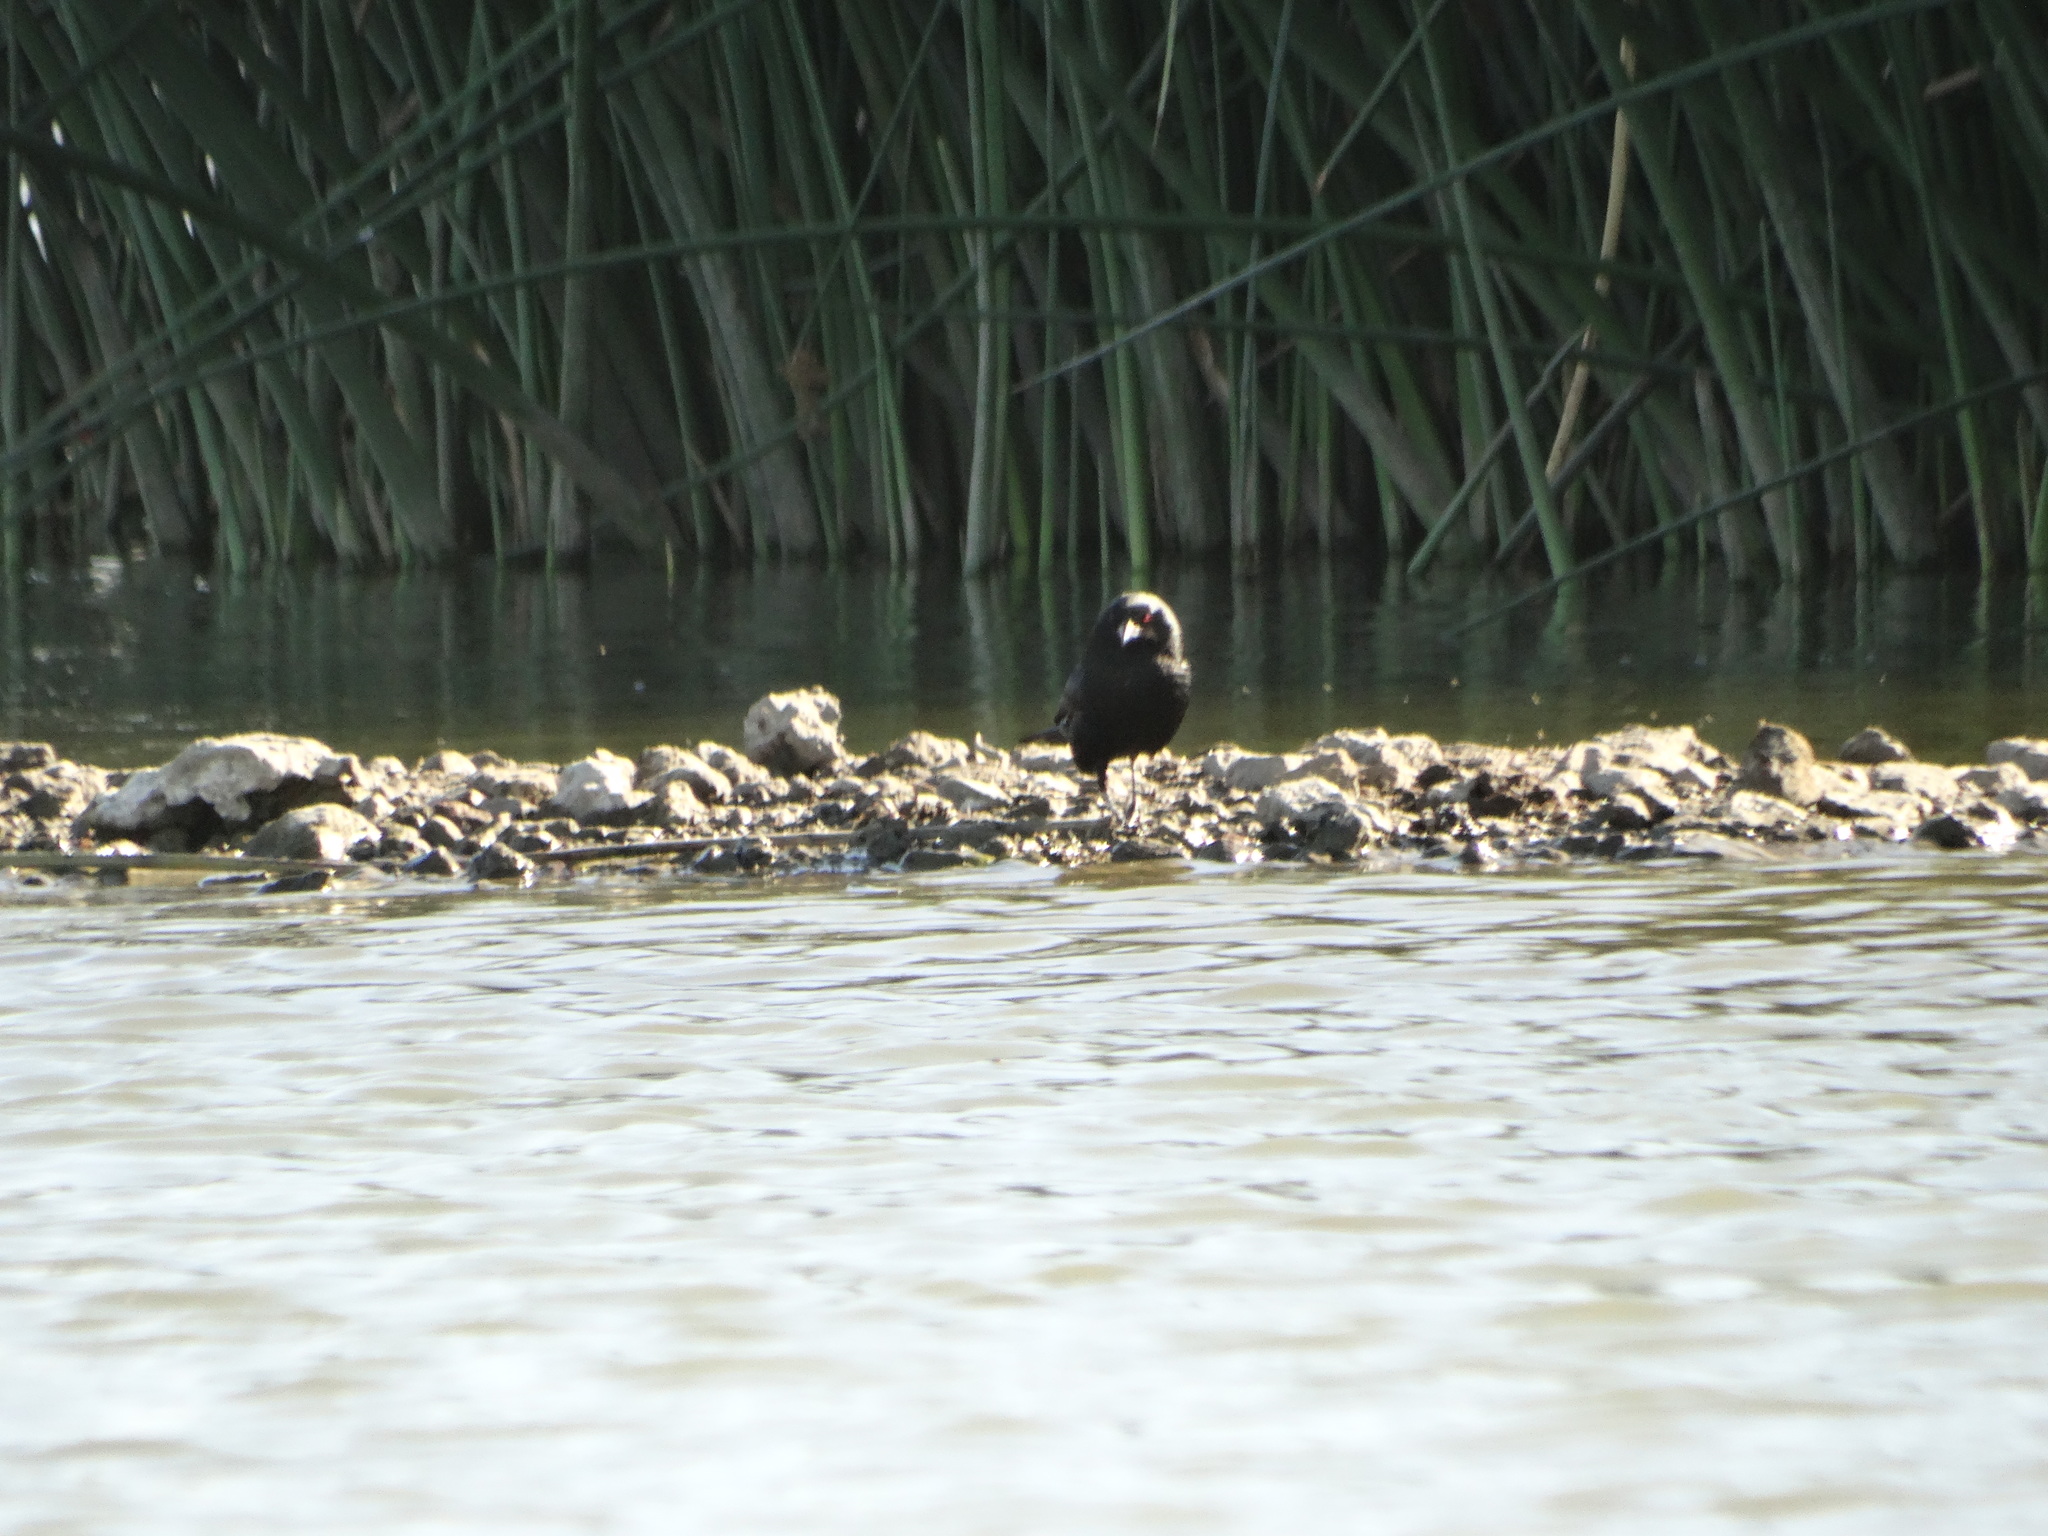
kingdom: Animalia
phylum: Chordata
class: Aves
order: Passeriformes
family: Icteridae
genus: Molothrus
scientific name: Molothrus aeneus
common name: Bronzed cowbird
